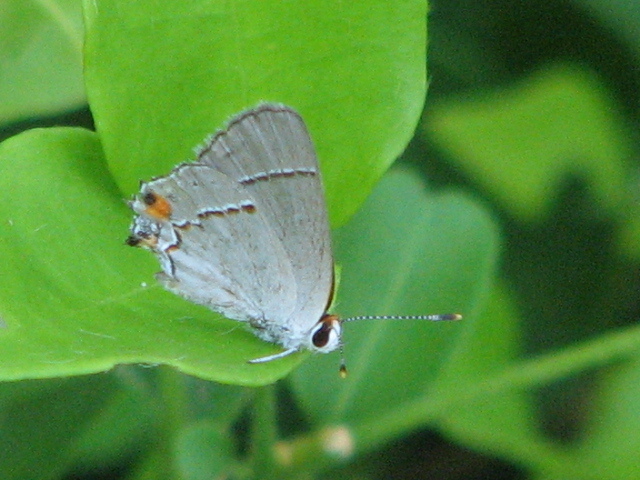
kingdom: Animalia
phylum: Arthropoda
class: Insecta
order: Lepidoptera
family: Lycaenidae
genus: Strymon
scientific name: Strymon melinus
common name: Gray hairstreak
